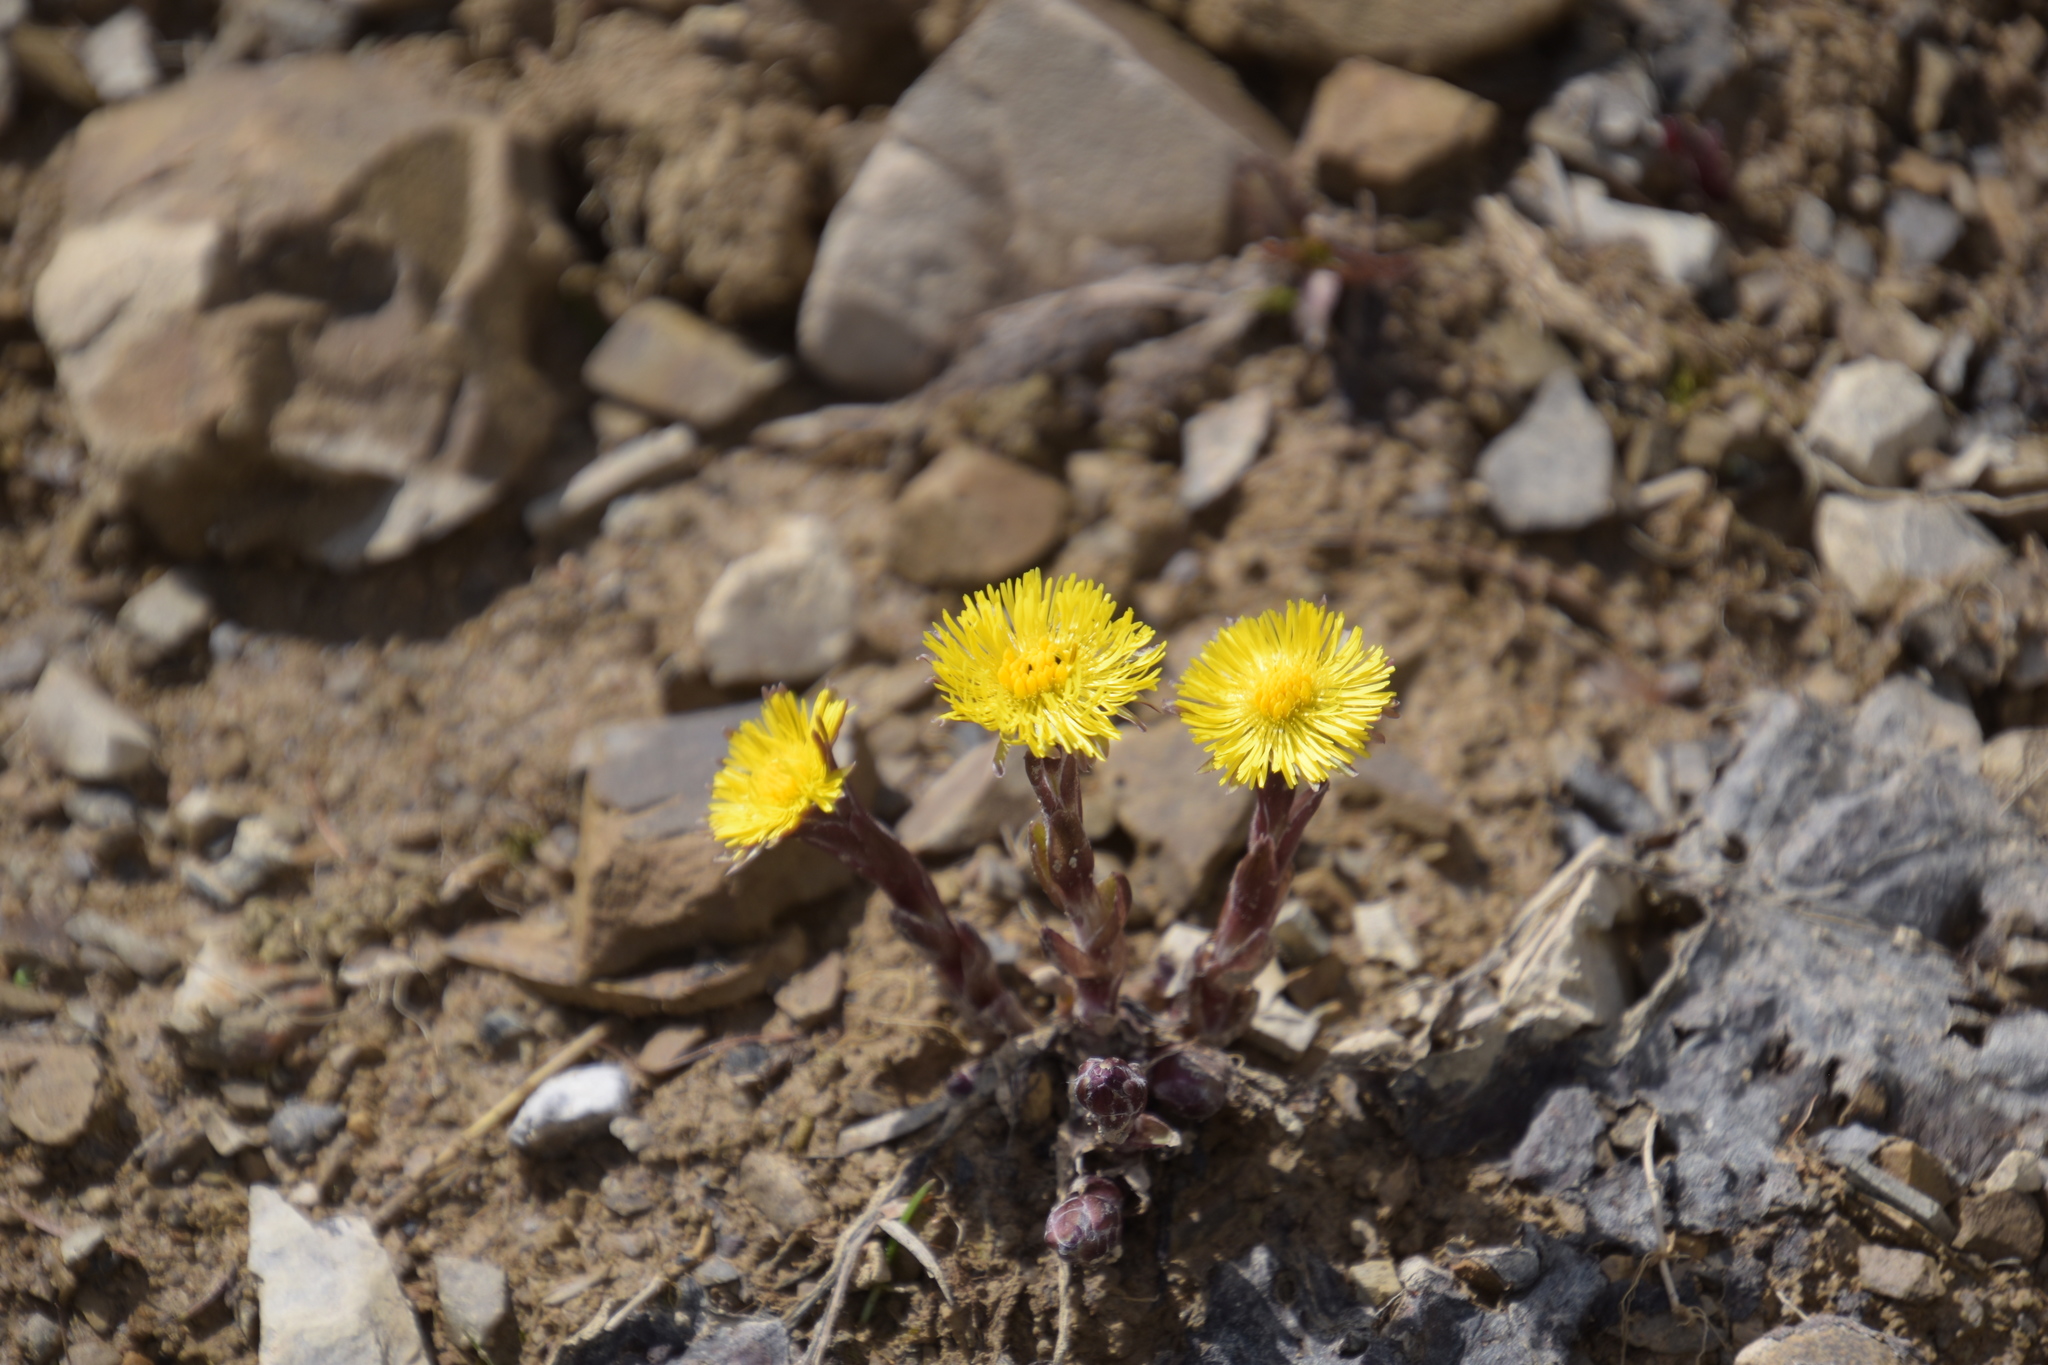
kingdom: Plantae
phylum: Tracheophyta
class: Magnoliopsida
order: Asterales
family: Asteraceae
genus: Tussilago
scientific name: Tussilago farfara
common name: Coltsfoot
